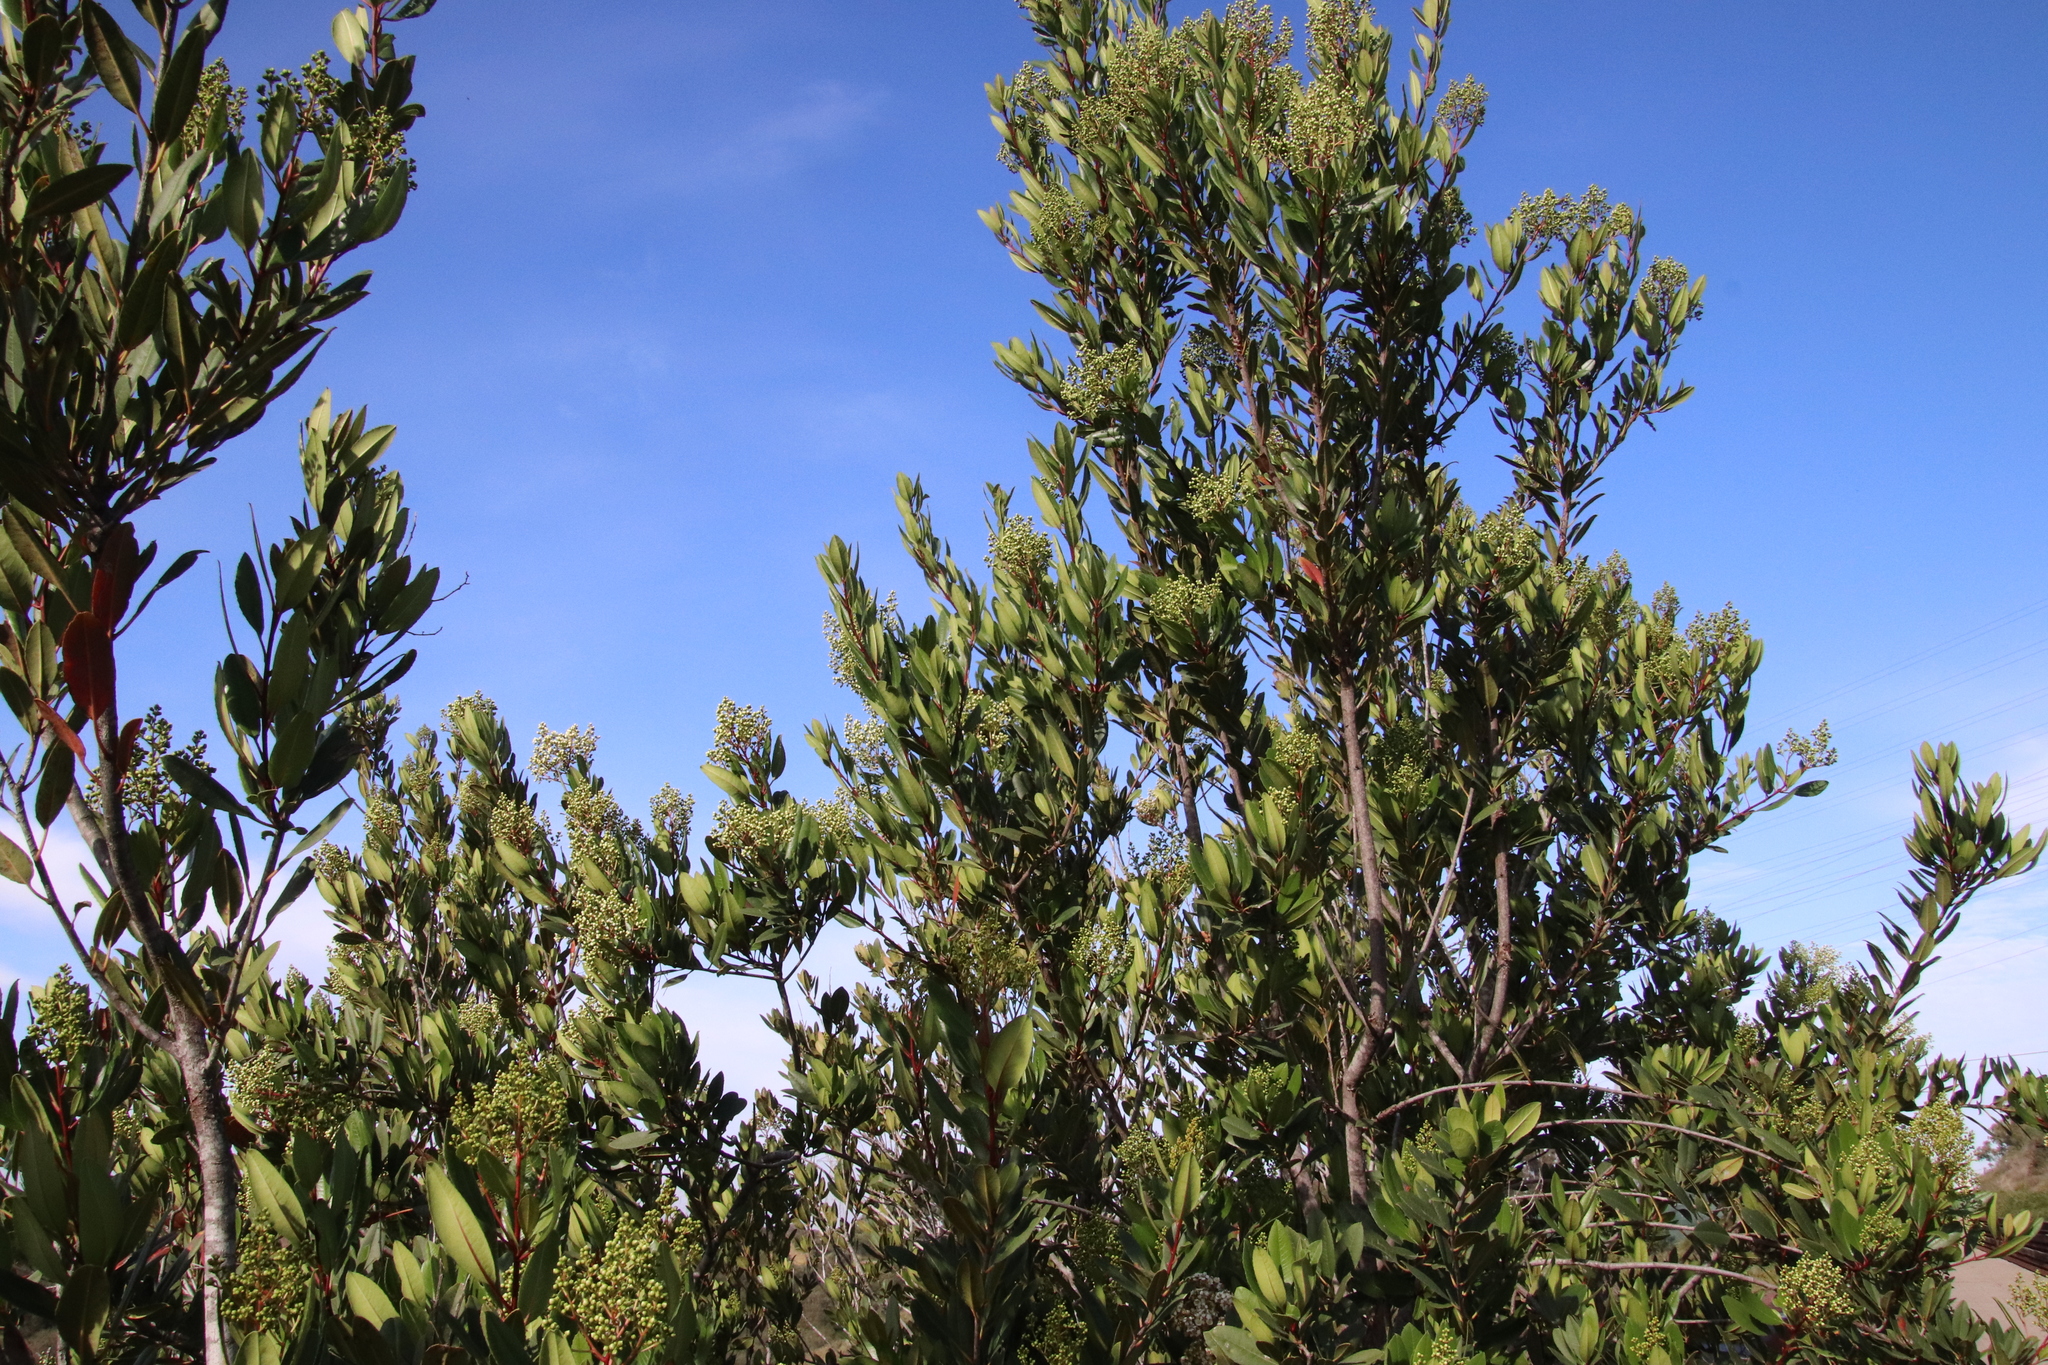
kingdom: Plantae
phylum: Tracheophyta
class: Magnoliopsida
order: Rosales
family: Rosaceae
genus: Heteromeles
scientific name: Heteromeles arbutifolia
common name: California-holly
